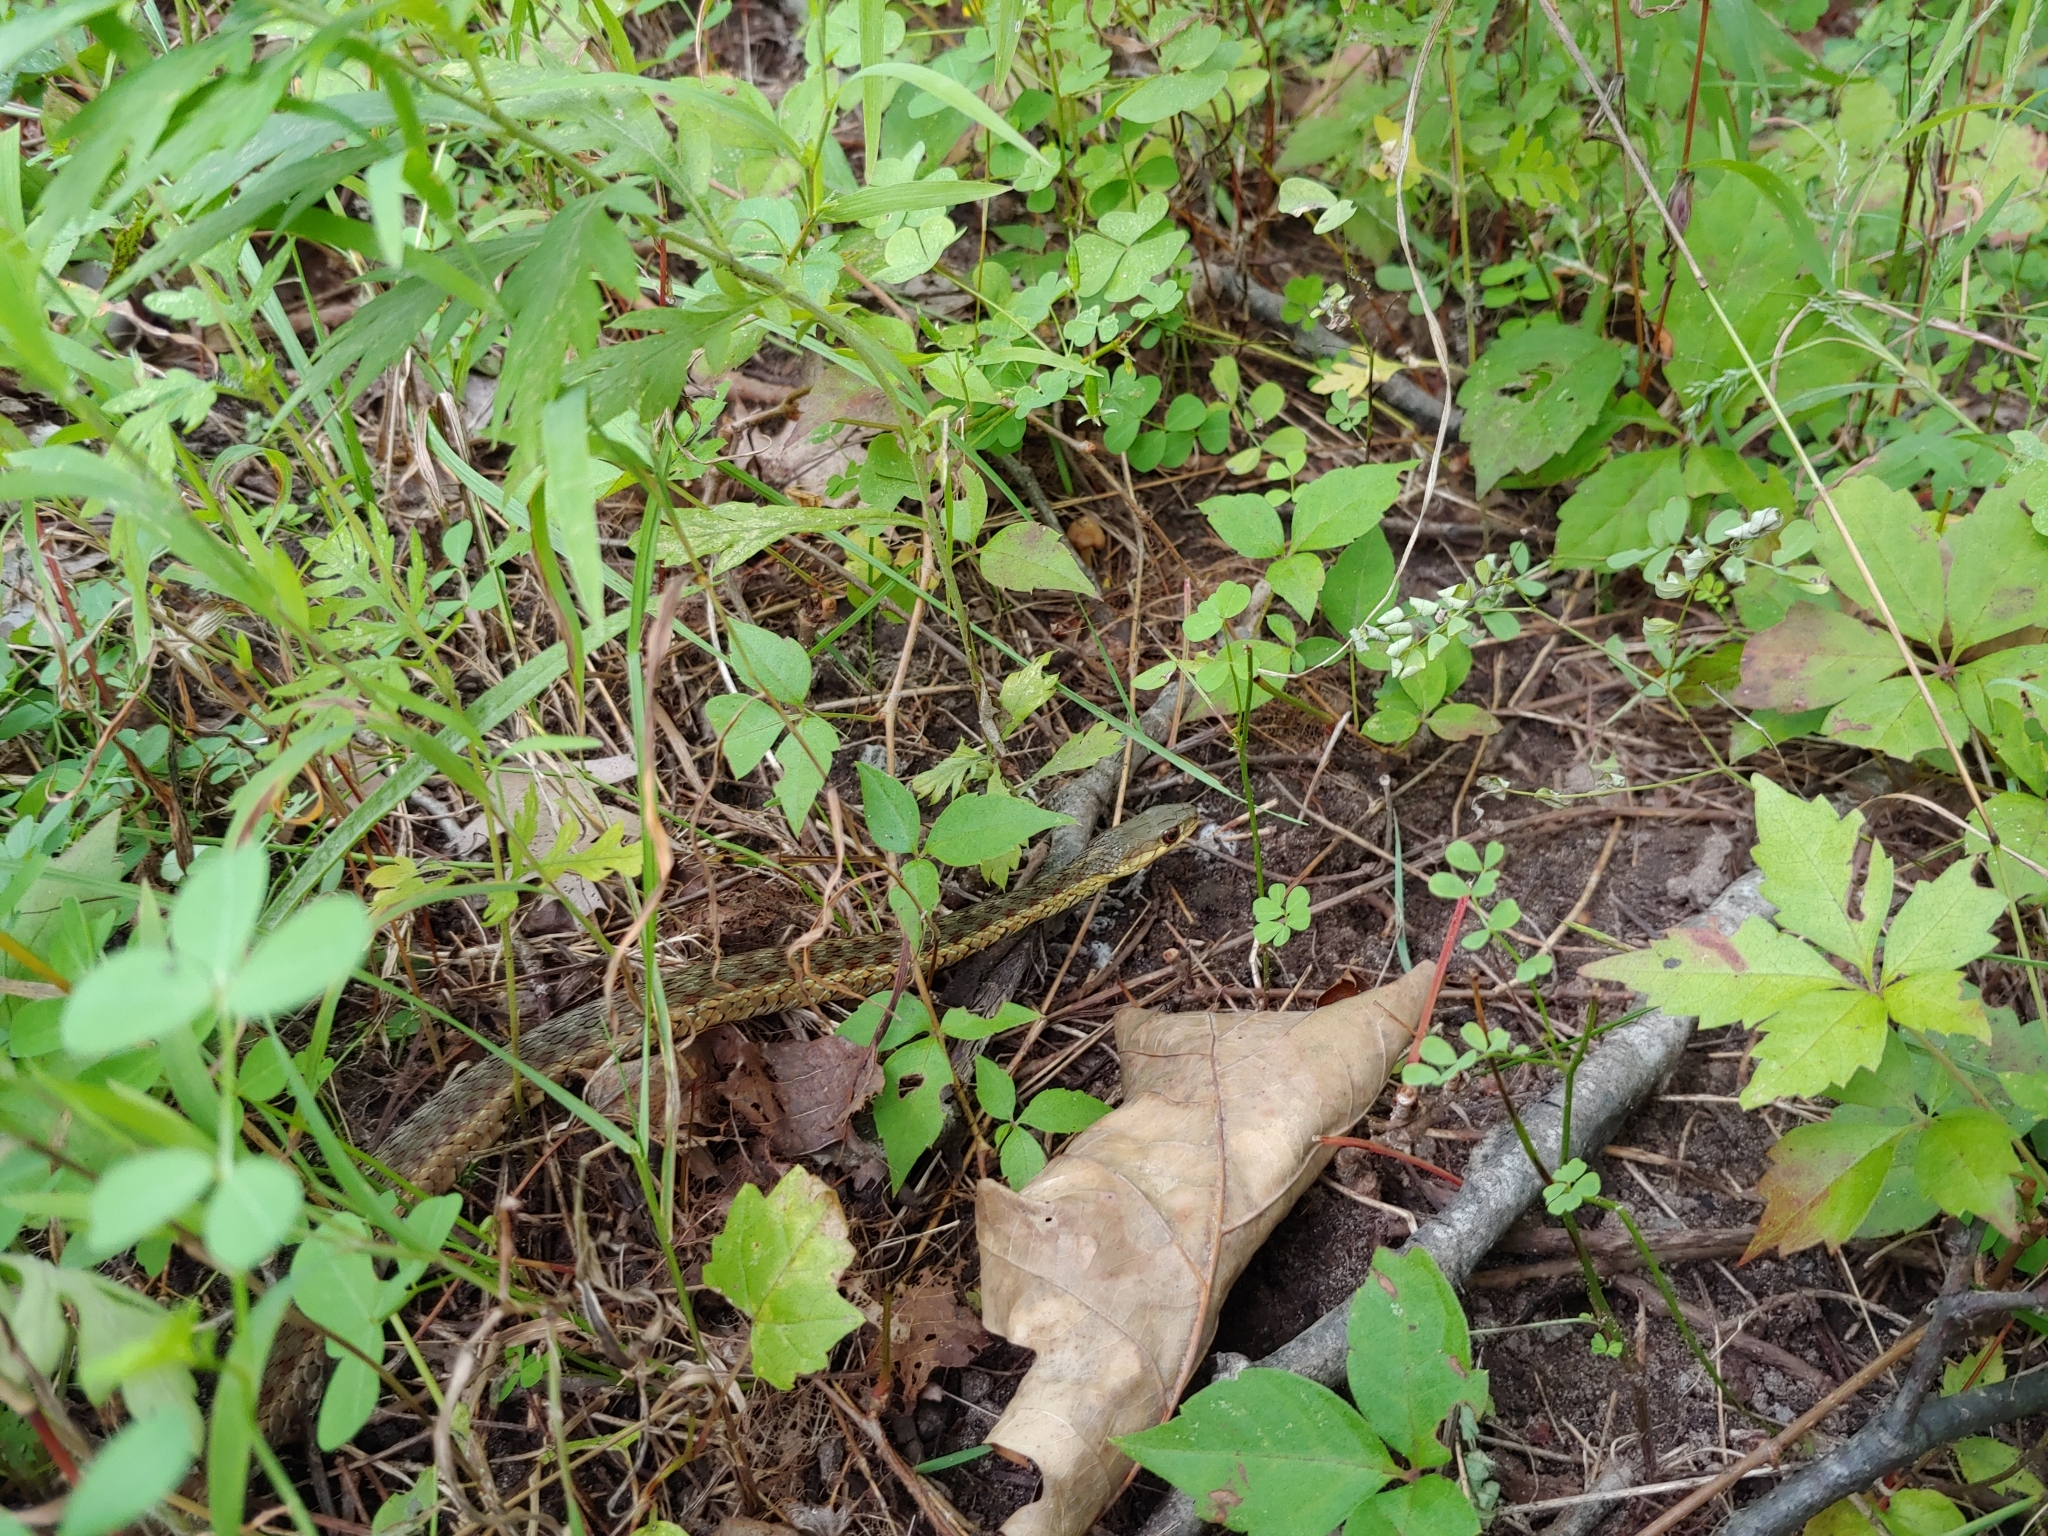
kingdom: Animalia
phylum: Chordata
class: Squamata
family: Colubridae
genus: Thamnophis
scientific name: Thamnophis sirtalis
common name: Common garter snake
